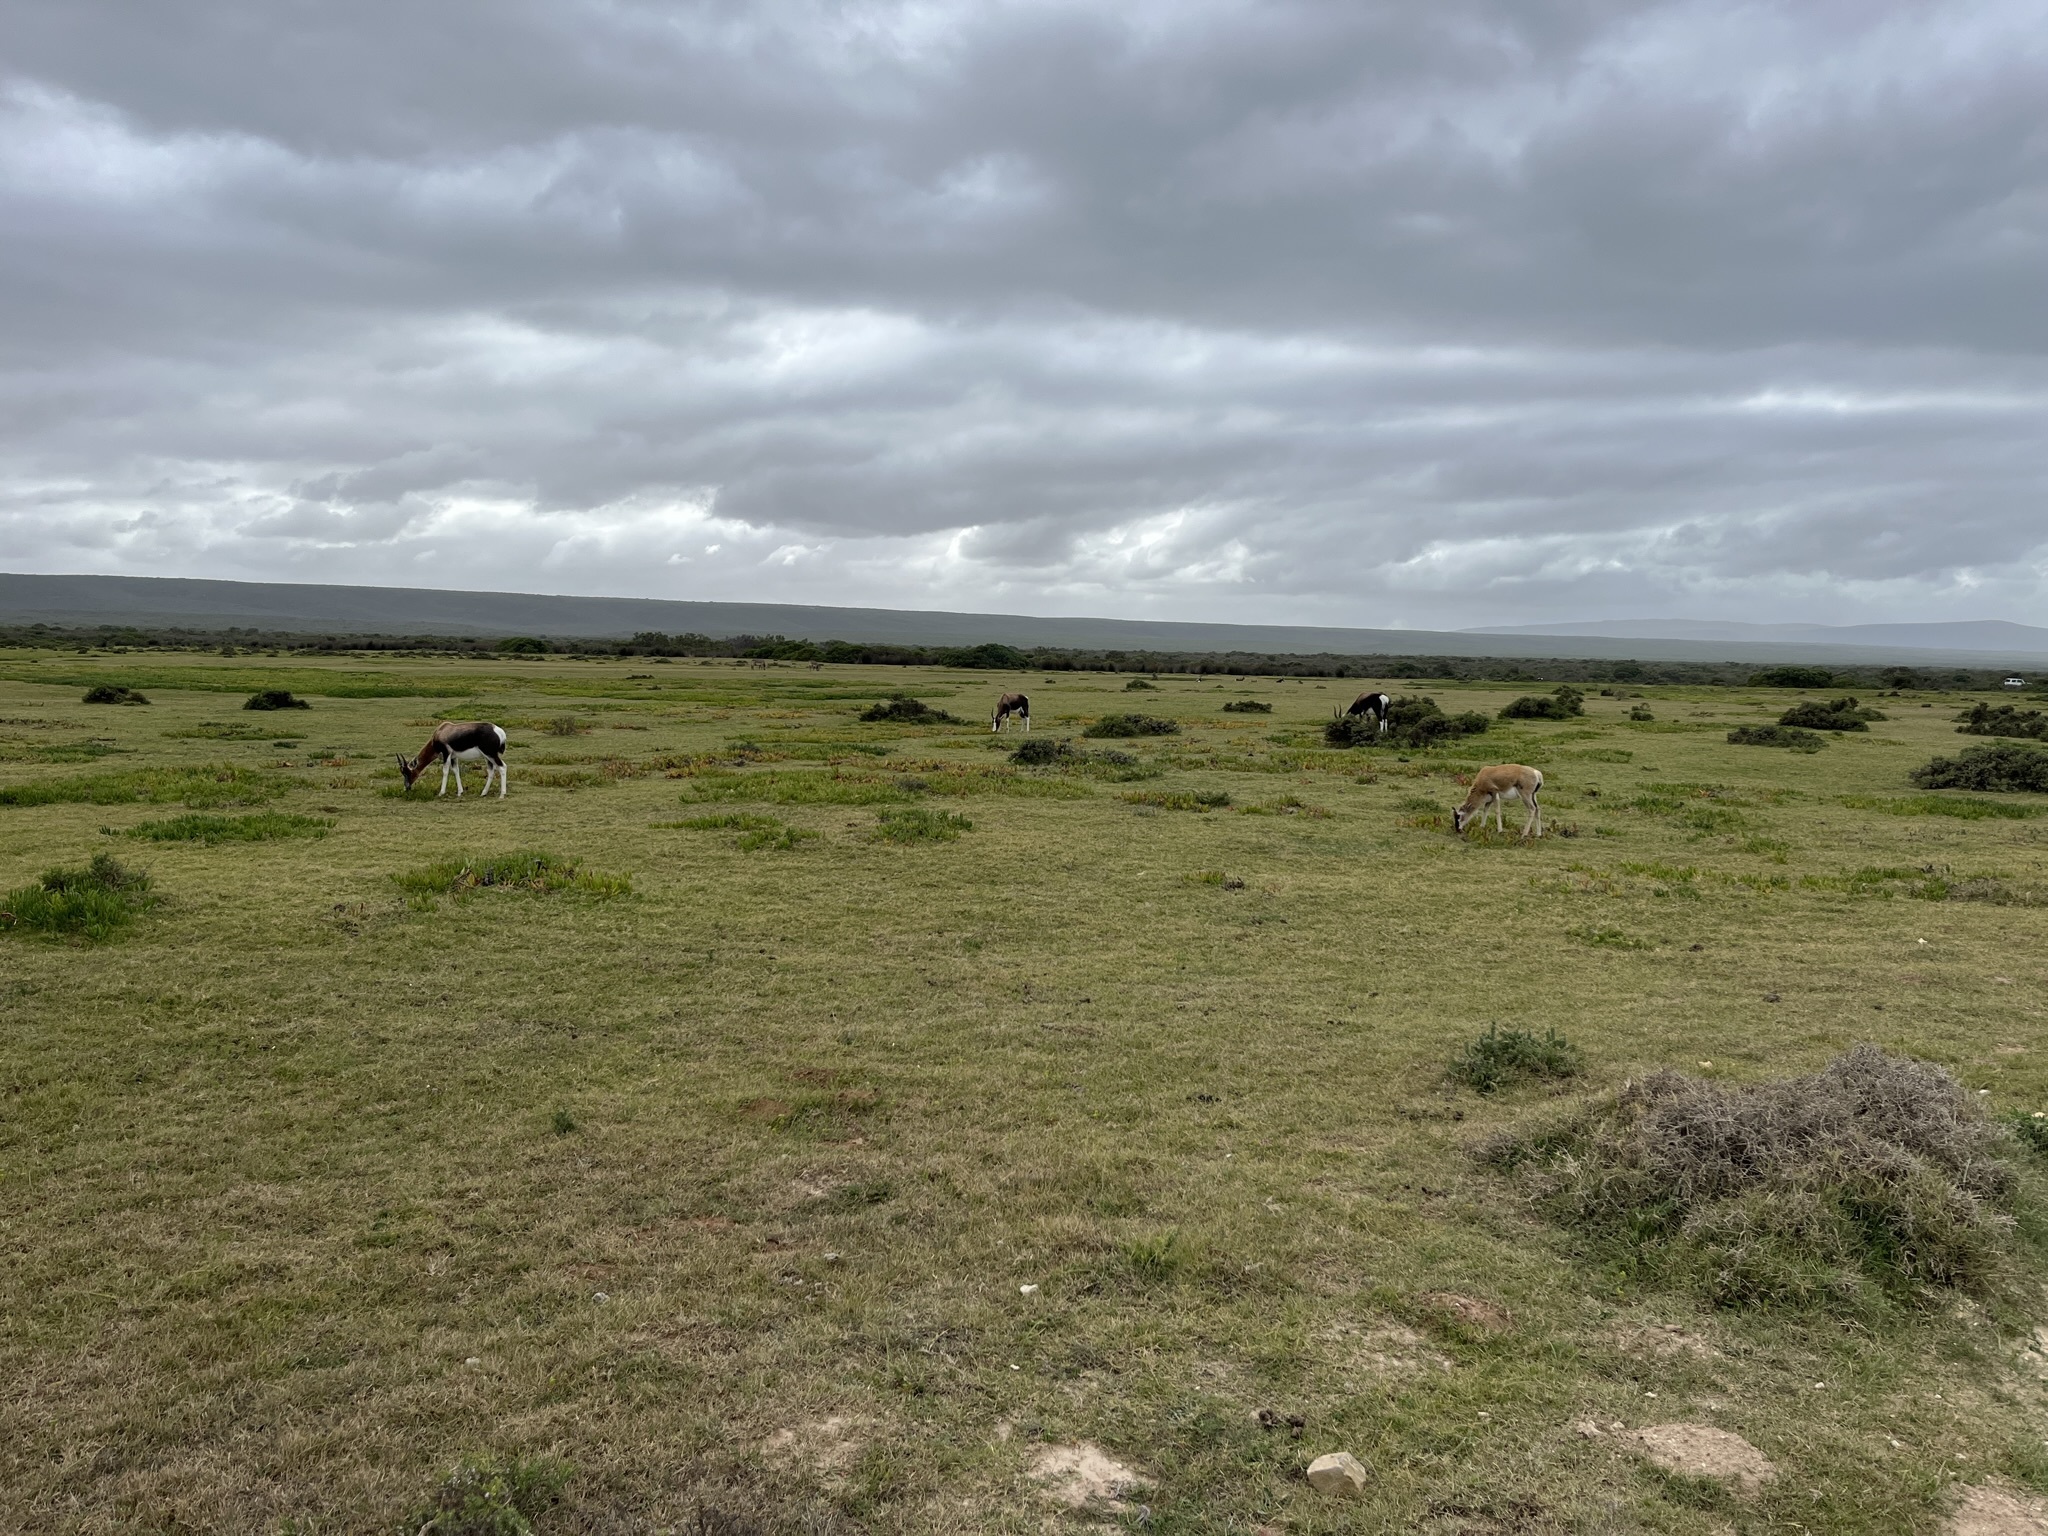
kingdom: Animalia
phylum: Chordata
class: Mammalia
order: Artiodactyla
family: Bovidae
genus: Damaliscus
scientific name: Damaliscus pygargus
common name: Bontebok
